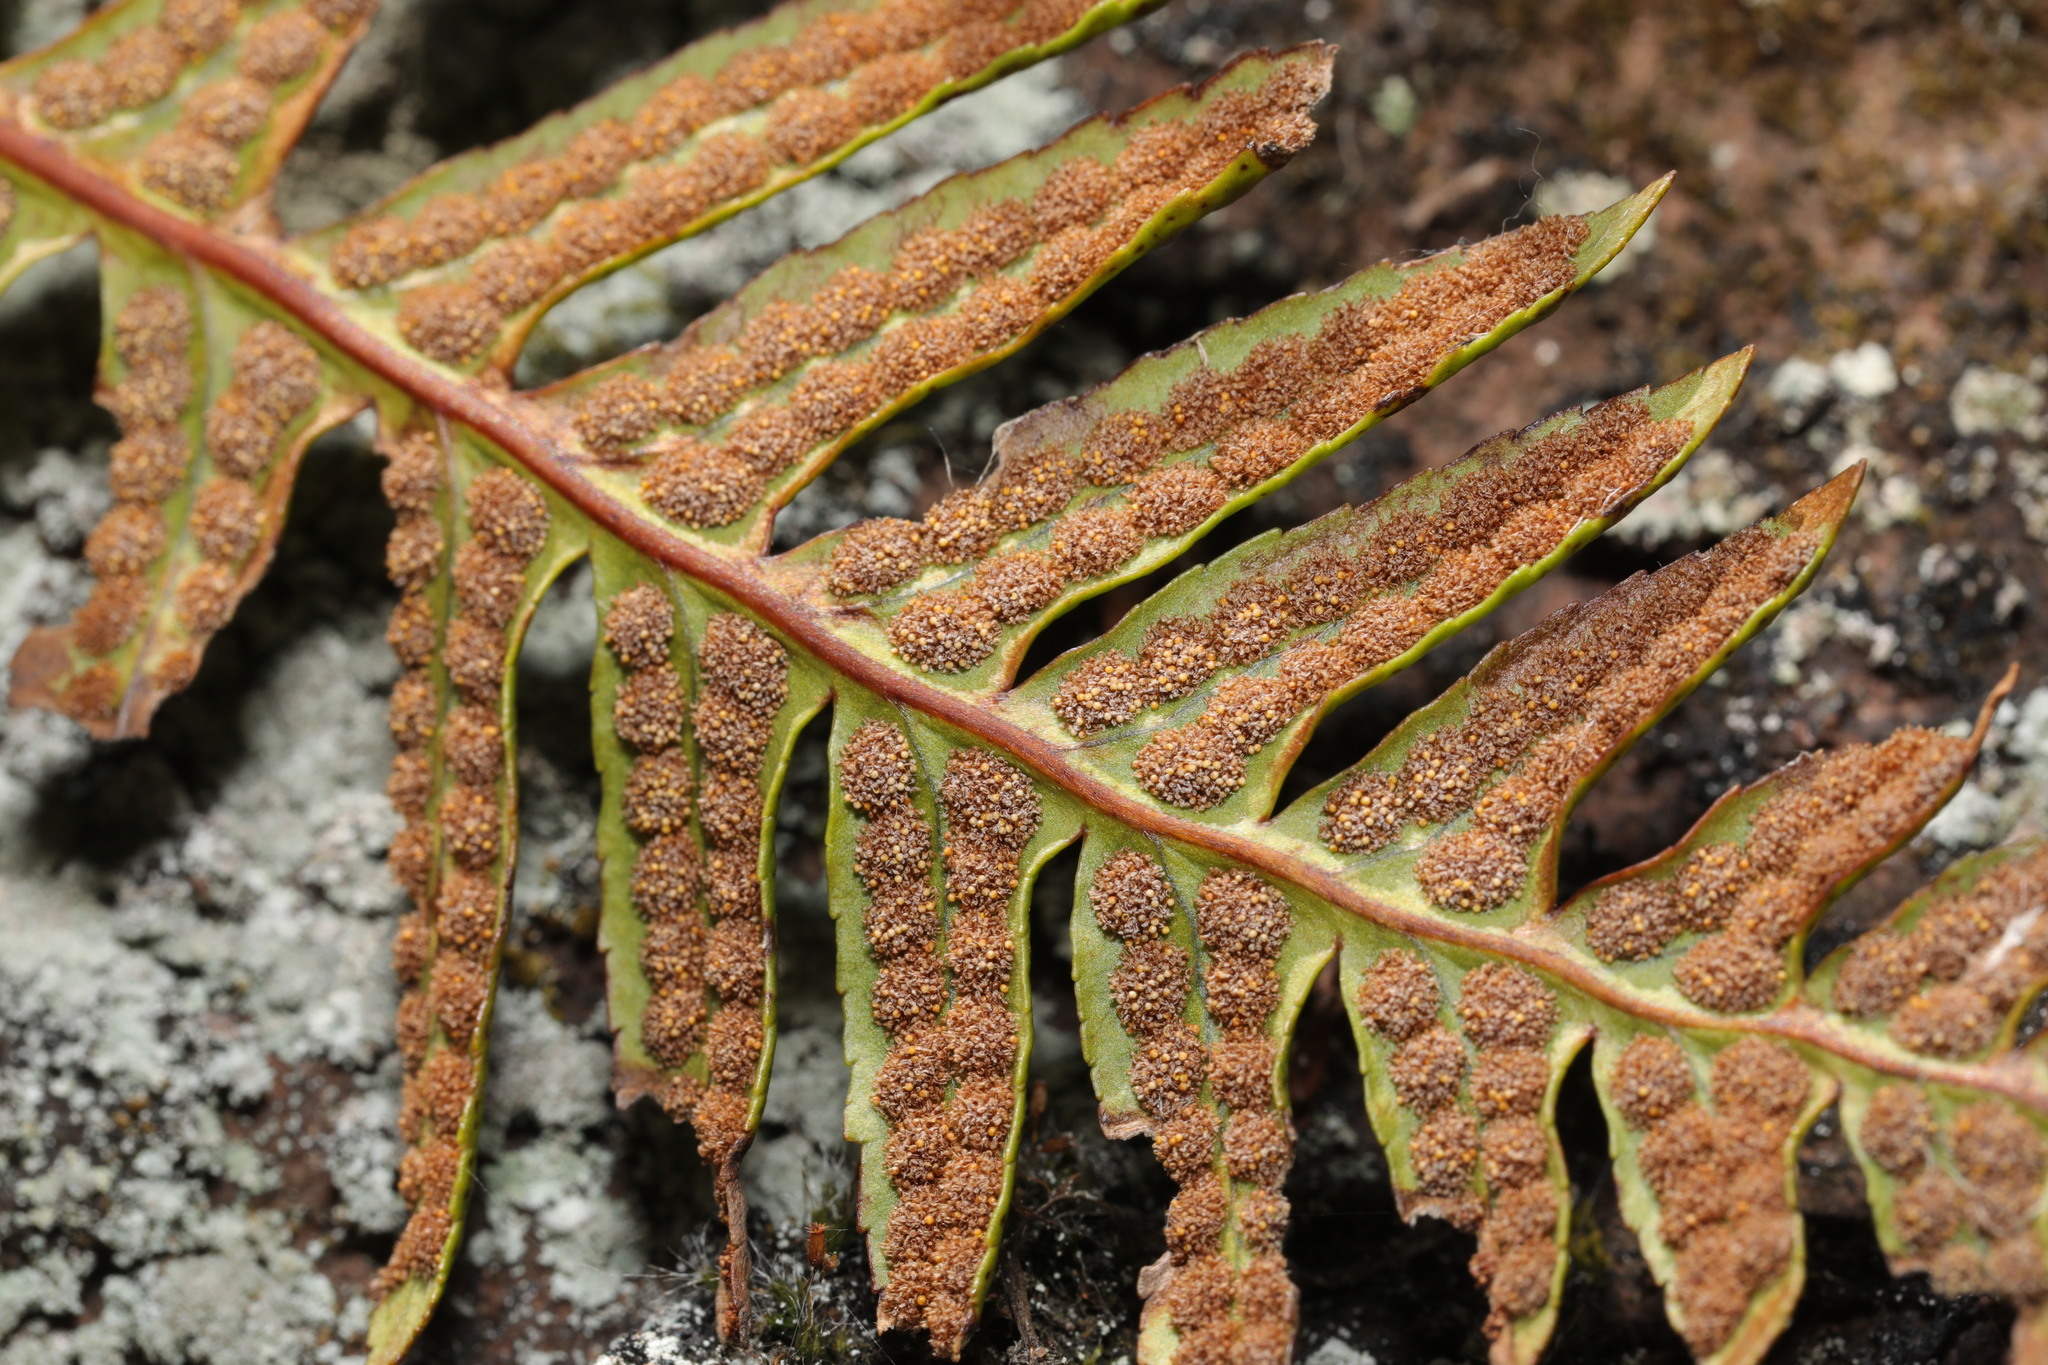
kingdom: Plantae
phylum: Tracheophyta
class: Polypodiopsida
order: Polypodiales
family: Polypodiaceae
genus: Polypodium
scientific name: Polypodium vulgare
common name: Common polypody
